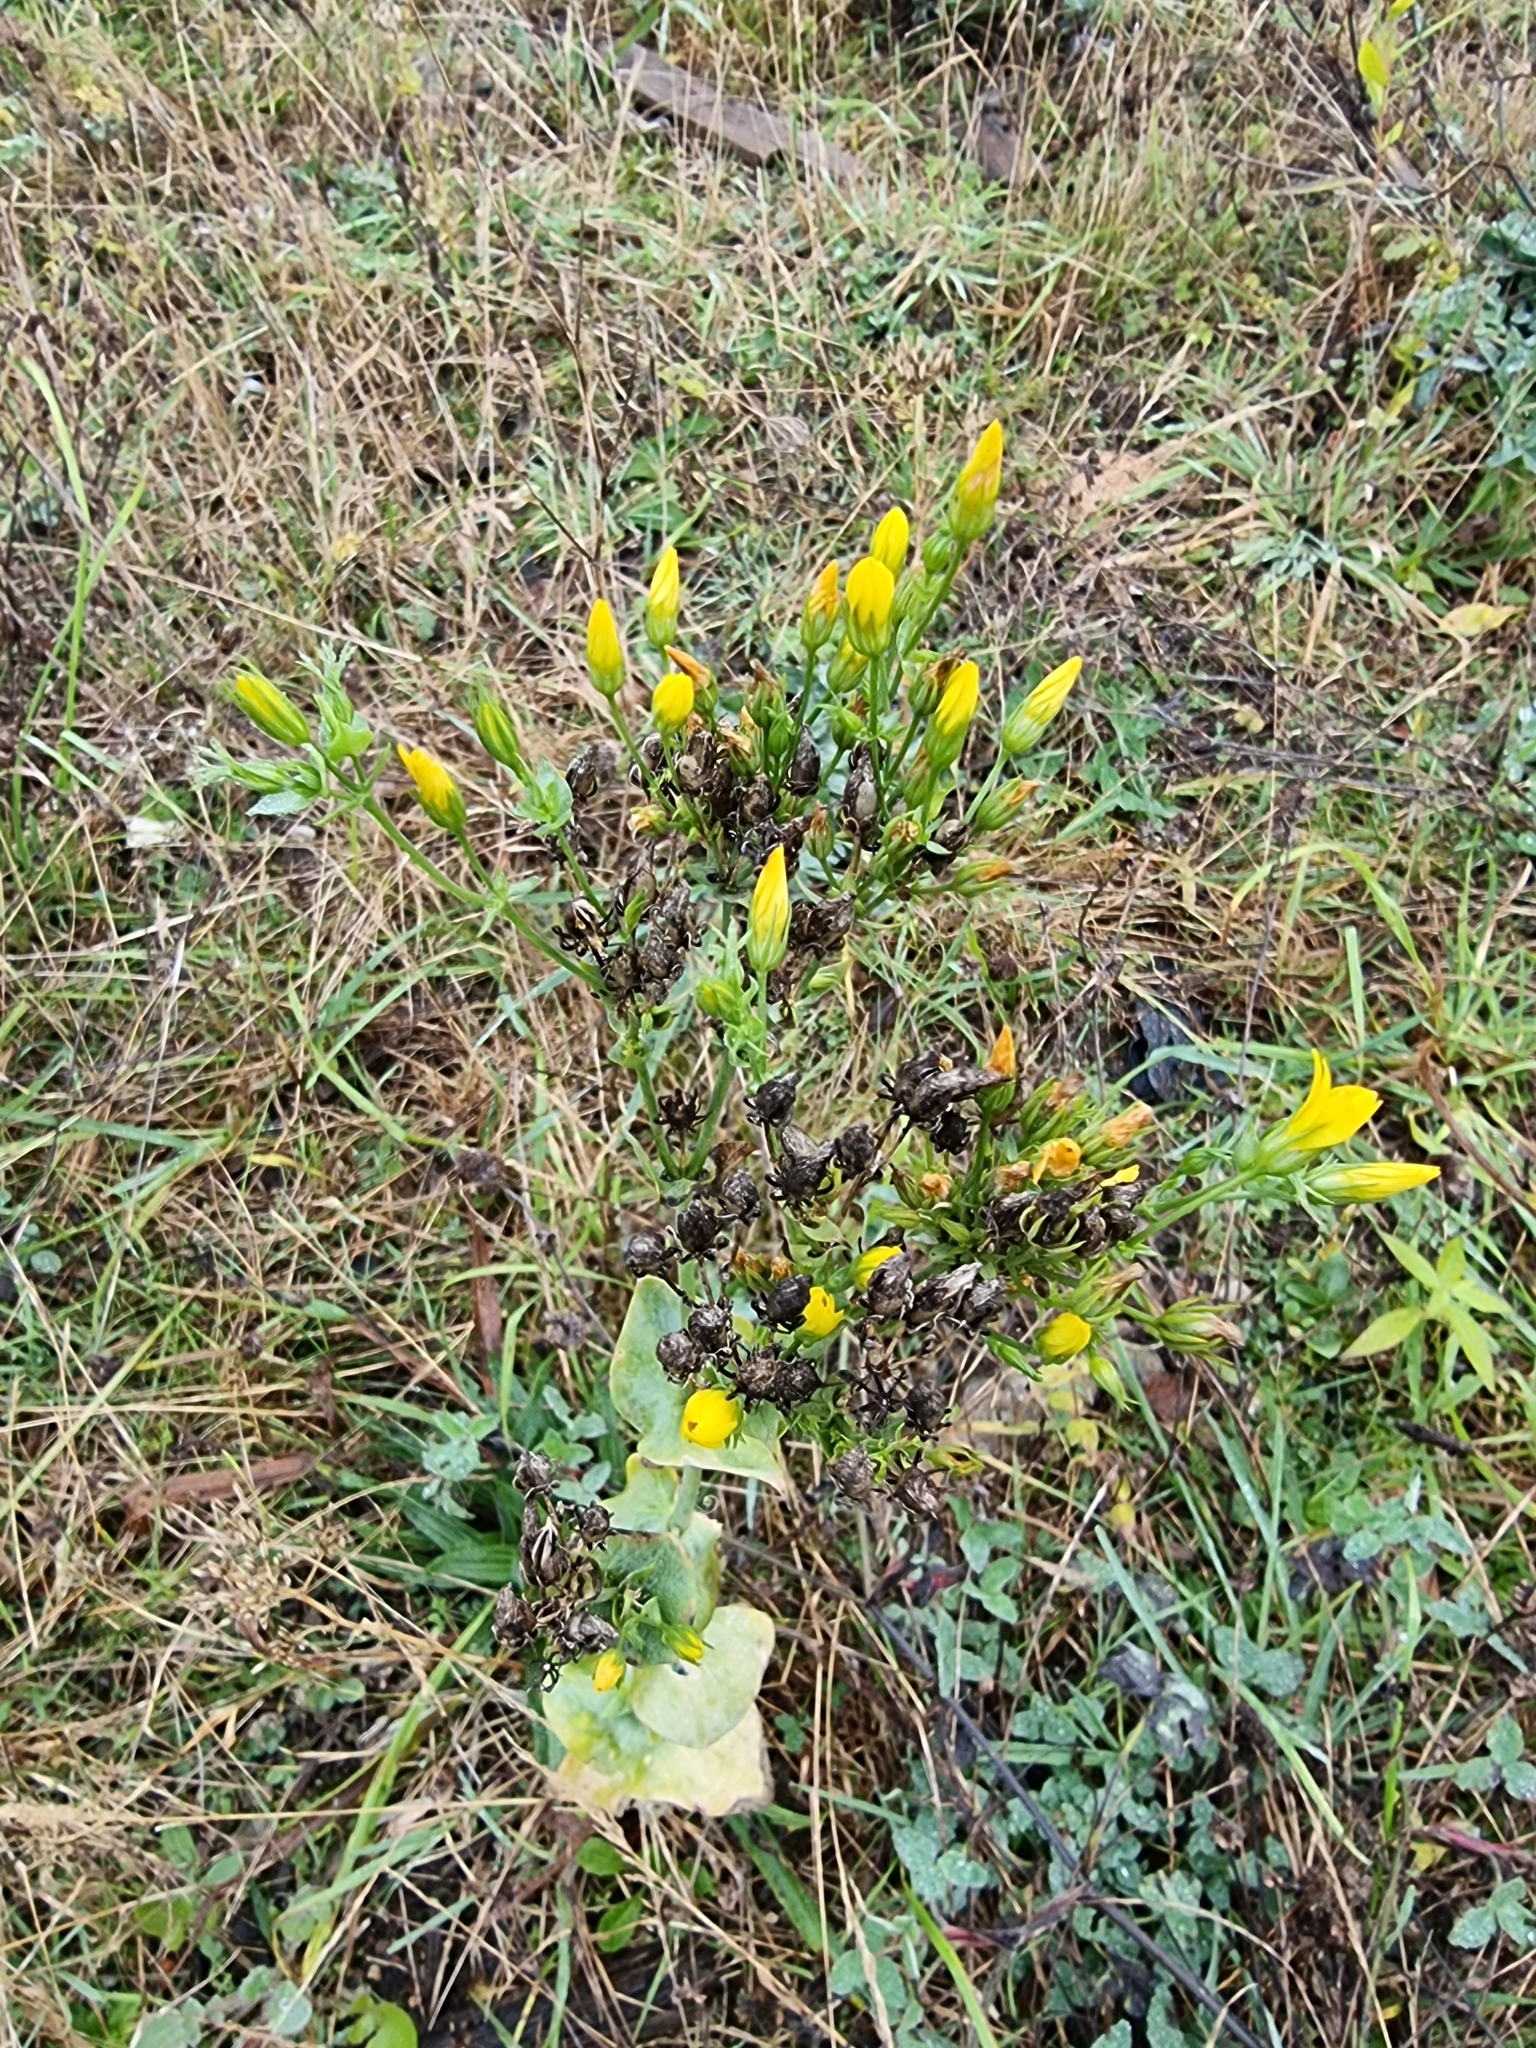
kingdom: Plantae
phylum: Tracheophyta
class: Magnoliopsida
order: Gentianales
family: Gentianaceae
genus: Blackstonia
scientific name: Blackstonia perfoliata
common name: Yellow-wort
